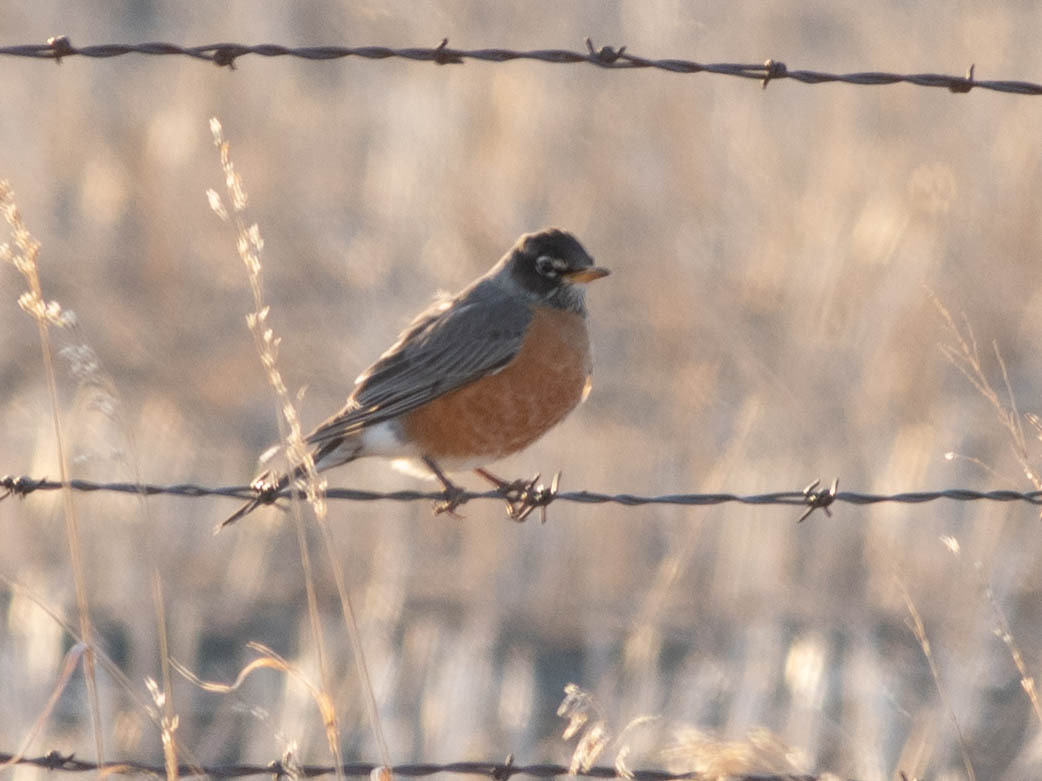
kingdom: Animalia
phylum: Chordata
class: Aves
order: Passeriformes
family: Turdidae
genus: Turdus
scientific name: Turdus migratorius
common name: American robin
